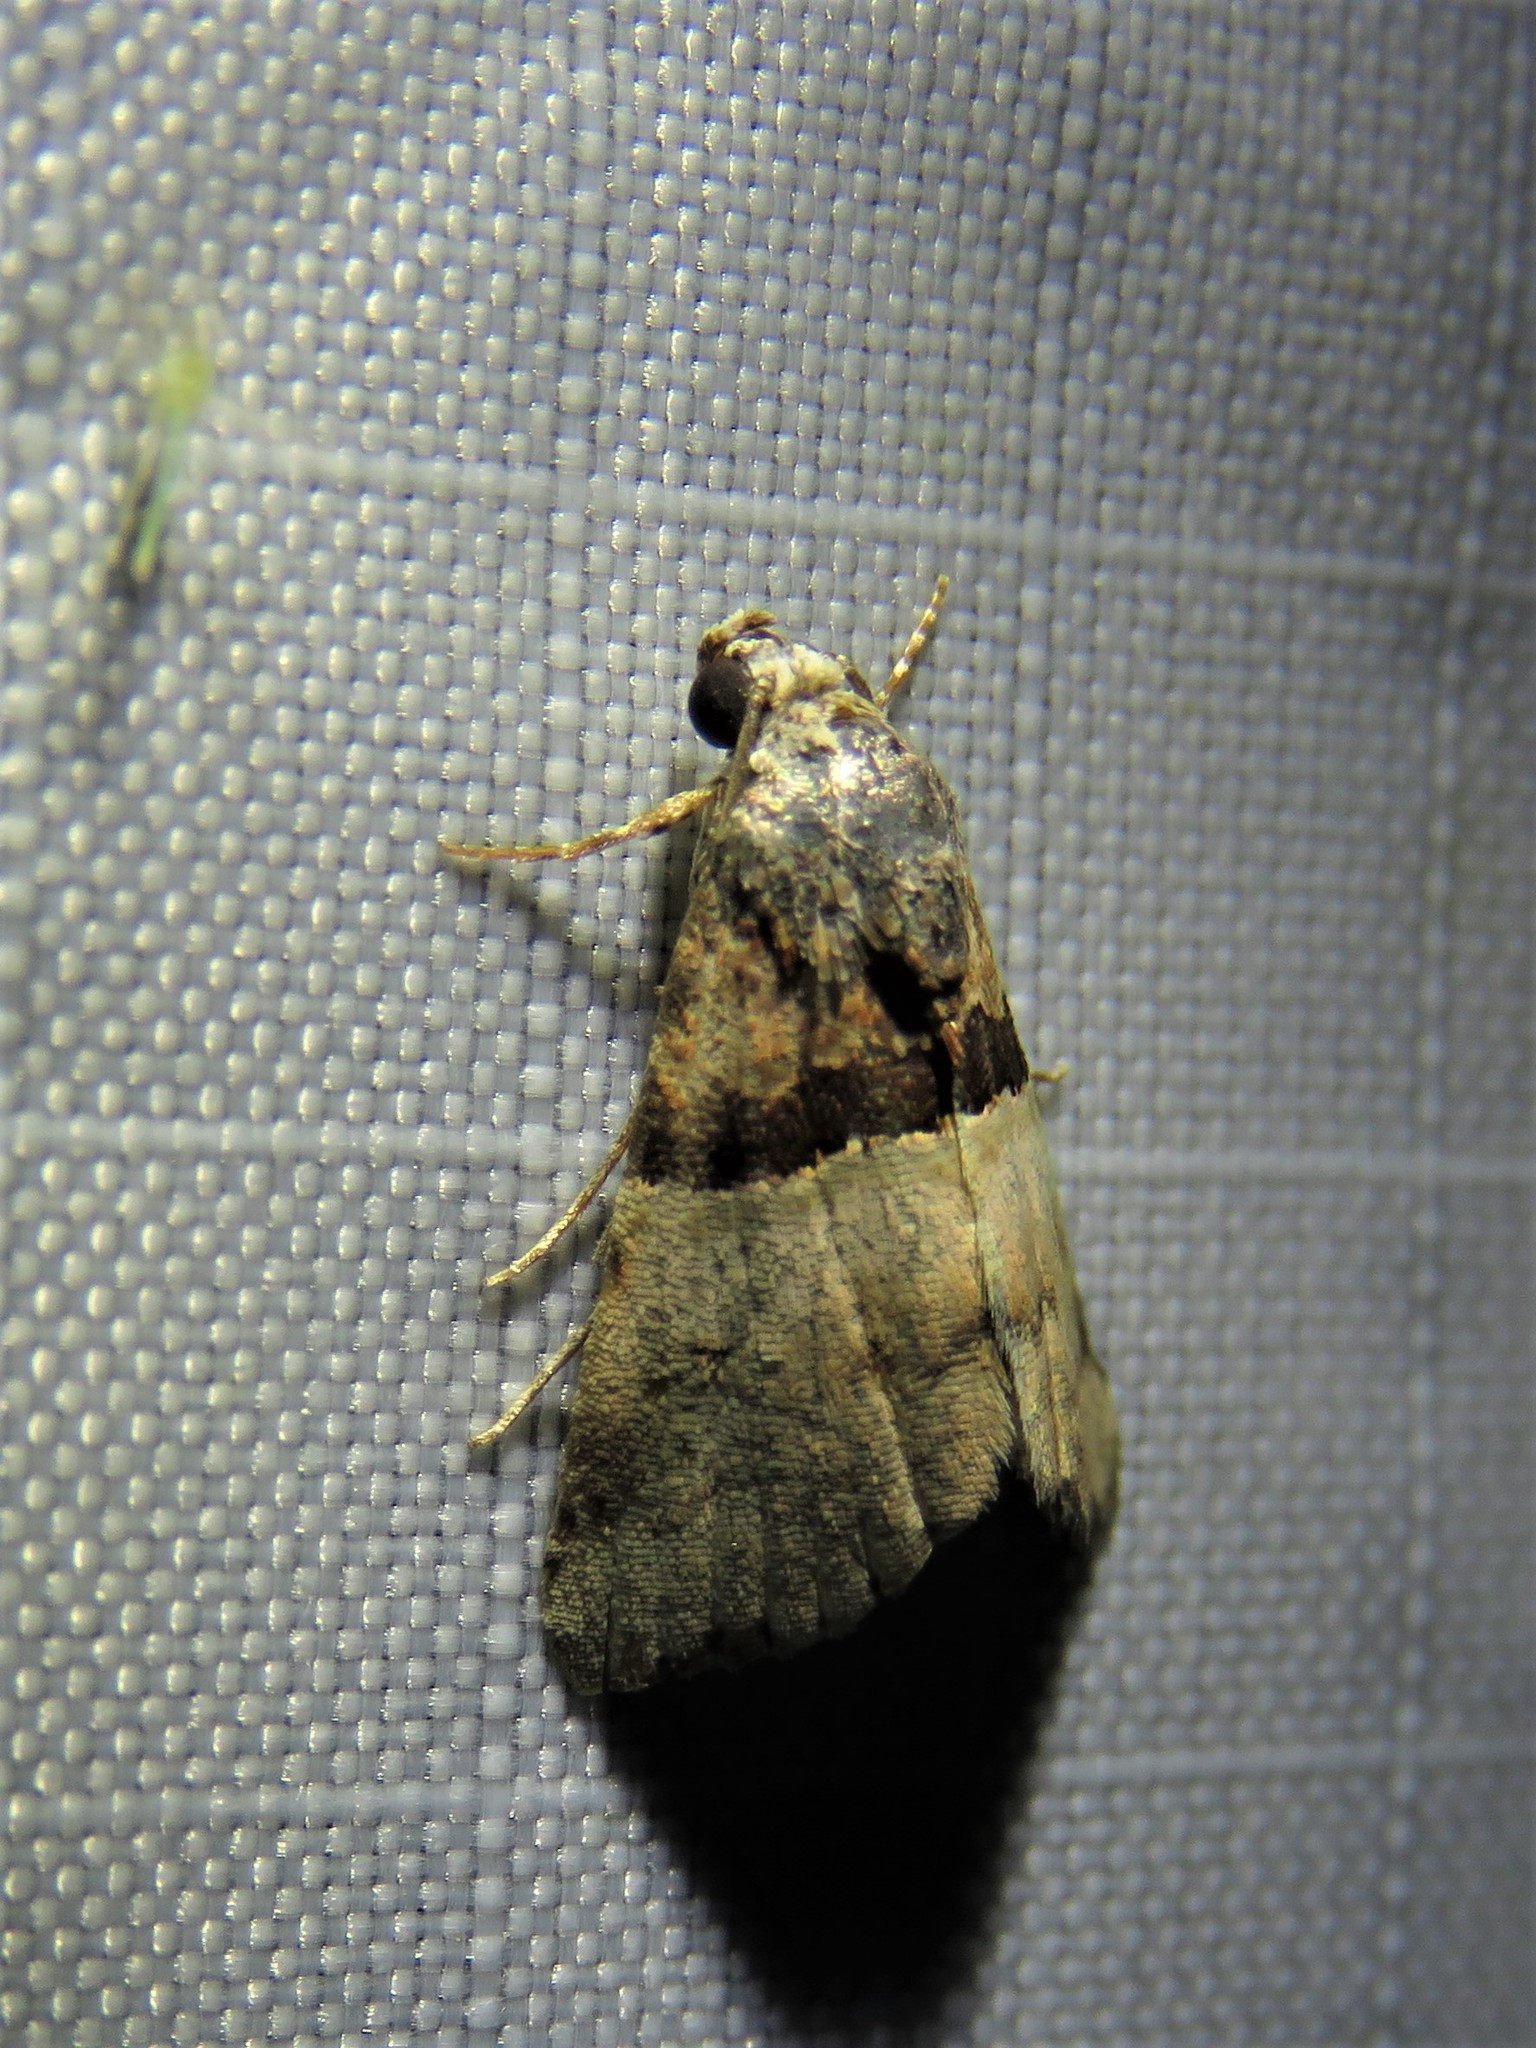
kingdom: Animalia
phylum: Arthropoda
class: Insecta
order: Lepidoptera
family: Noctuidae
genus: Cobubatha
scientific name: Cobubatha dividua
